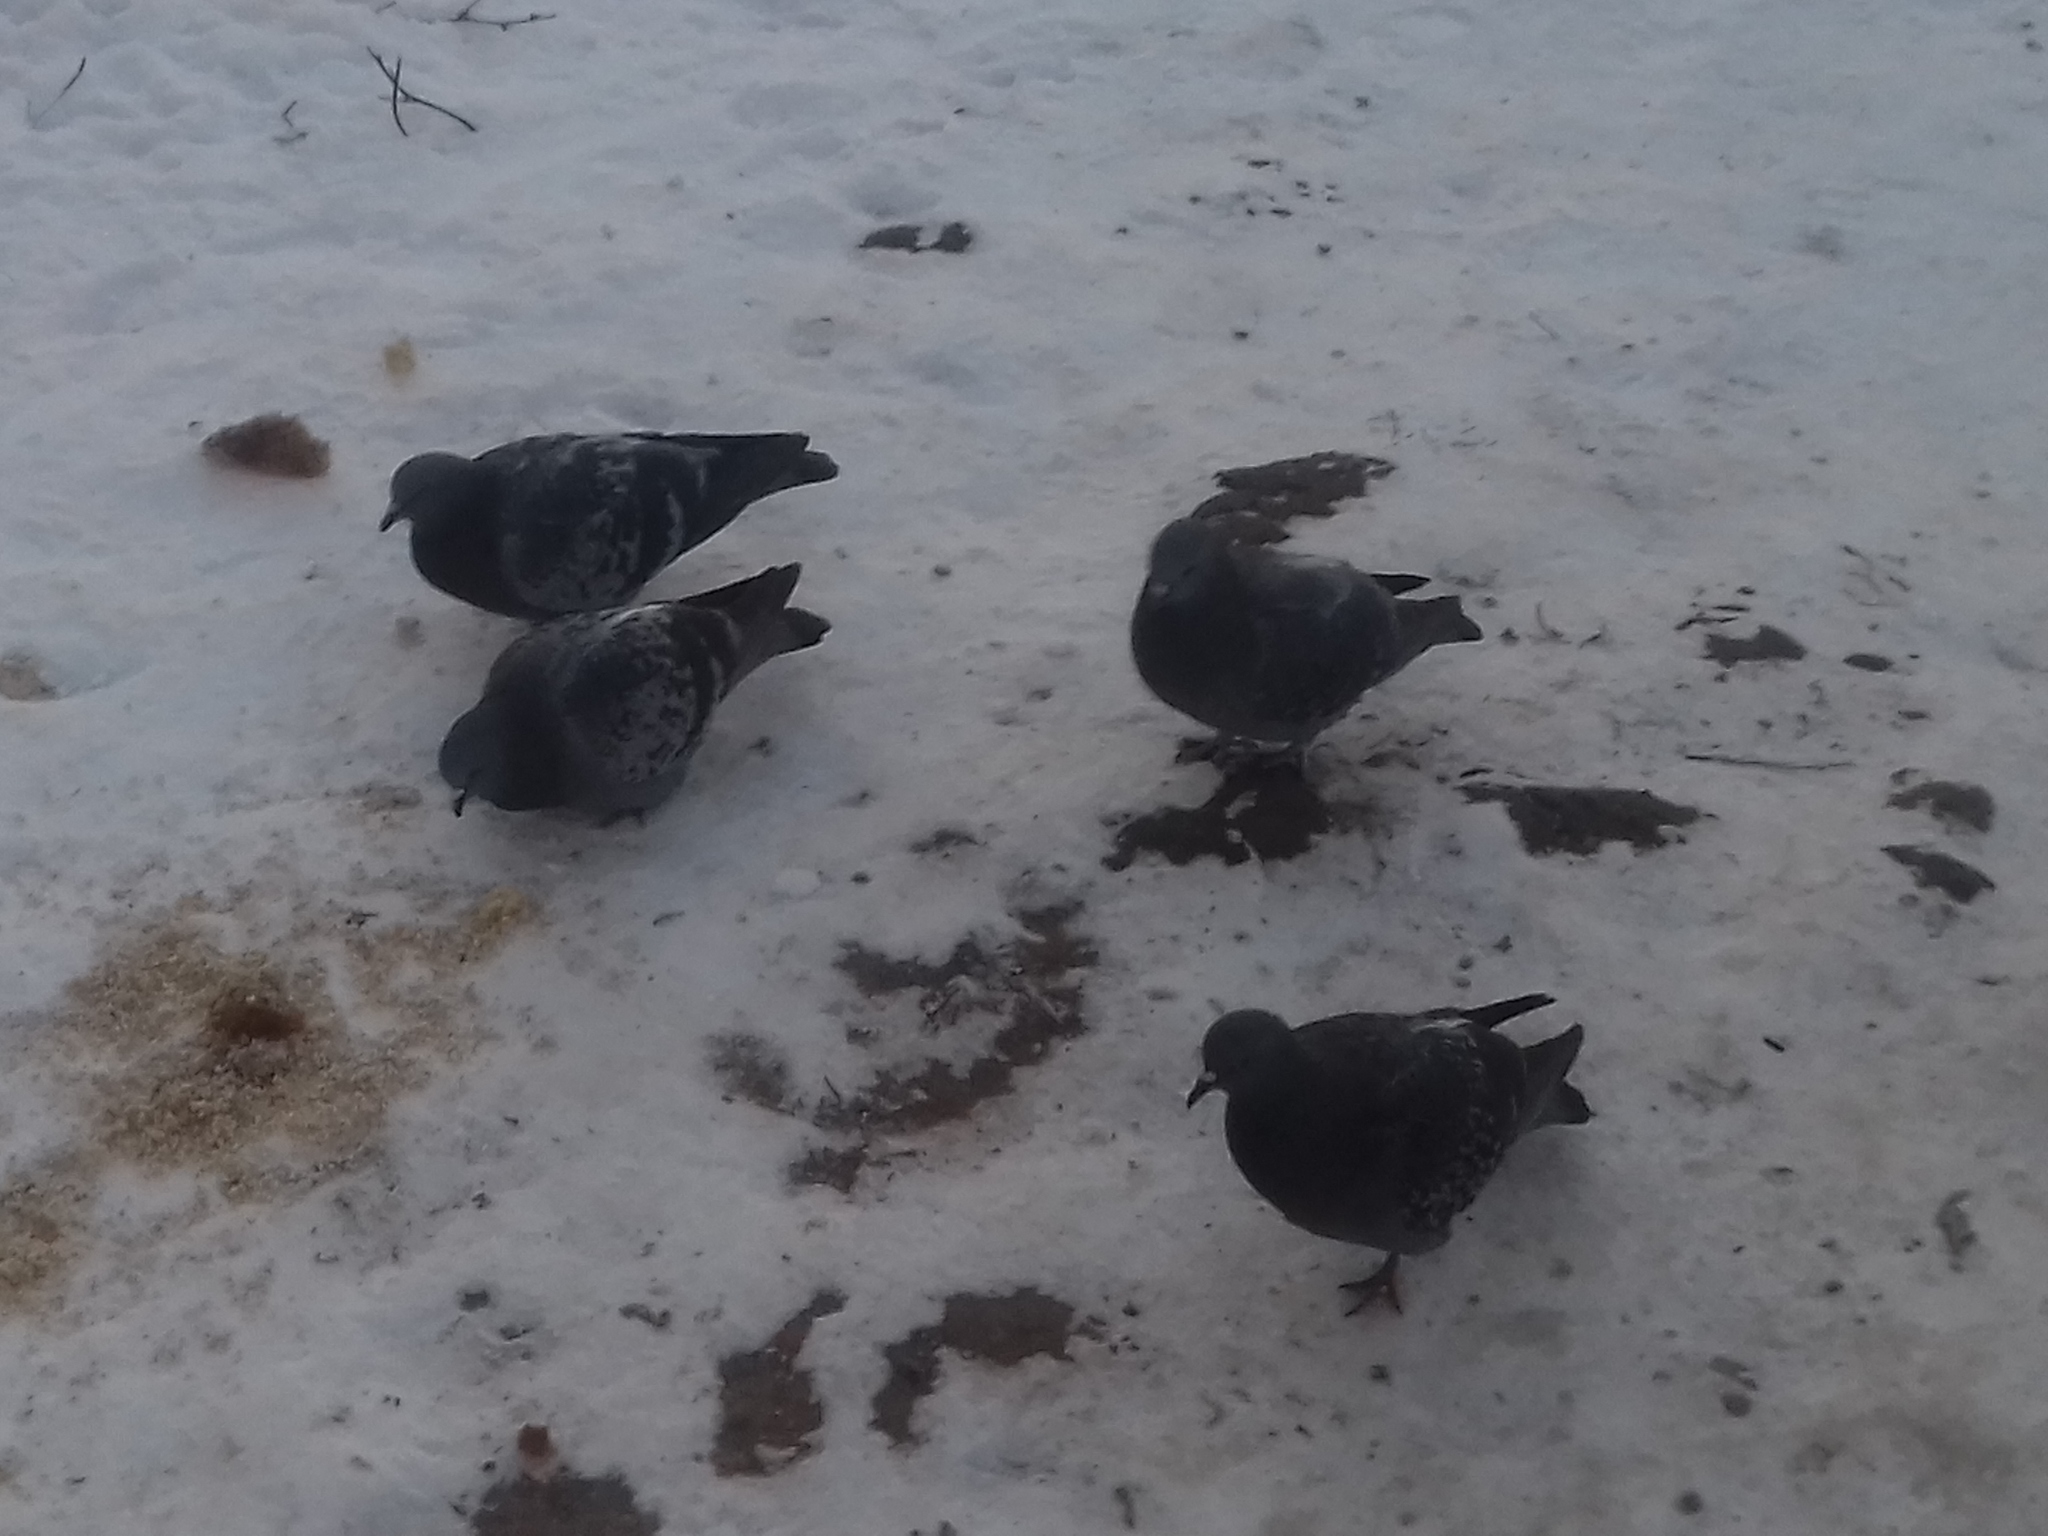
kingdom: Animalia
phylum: Chordata
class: Aves
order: Columbiformes
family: Columbidae
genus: Columba
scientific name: Columba livia
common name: Rock pigeon
